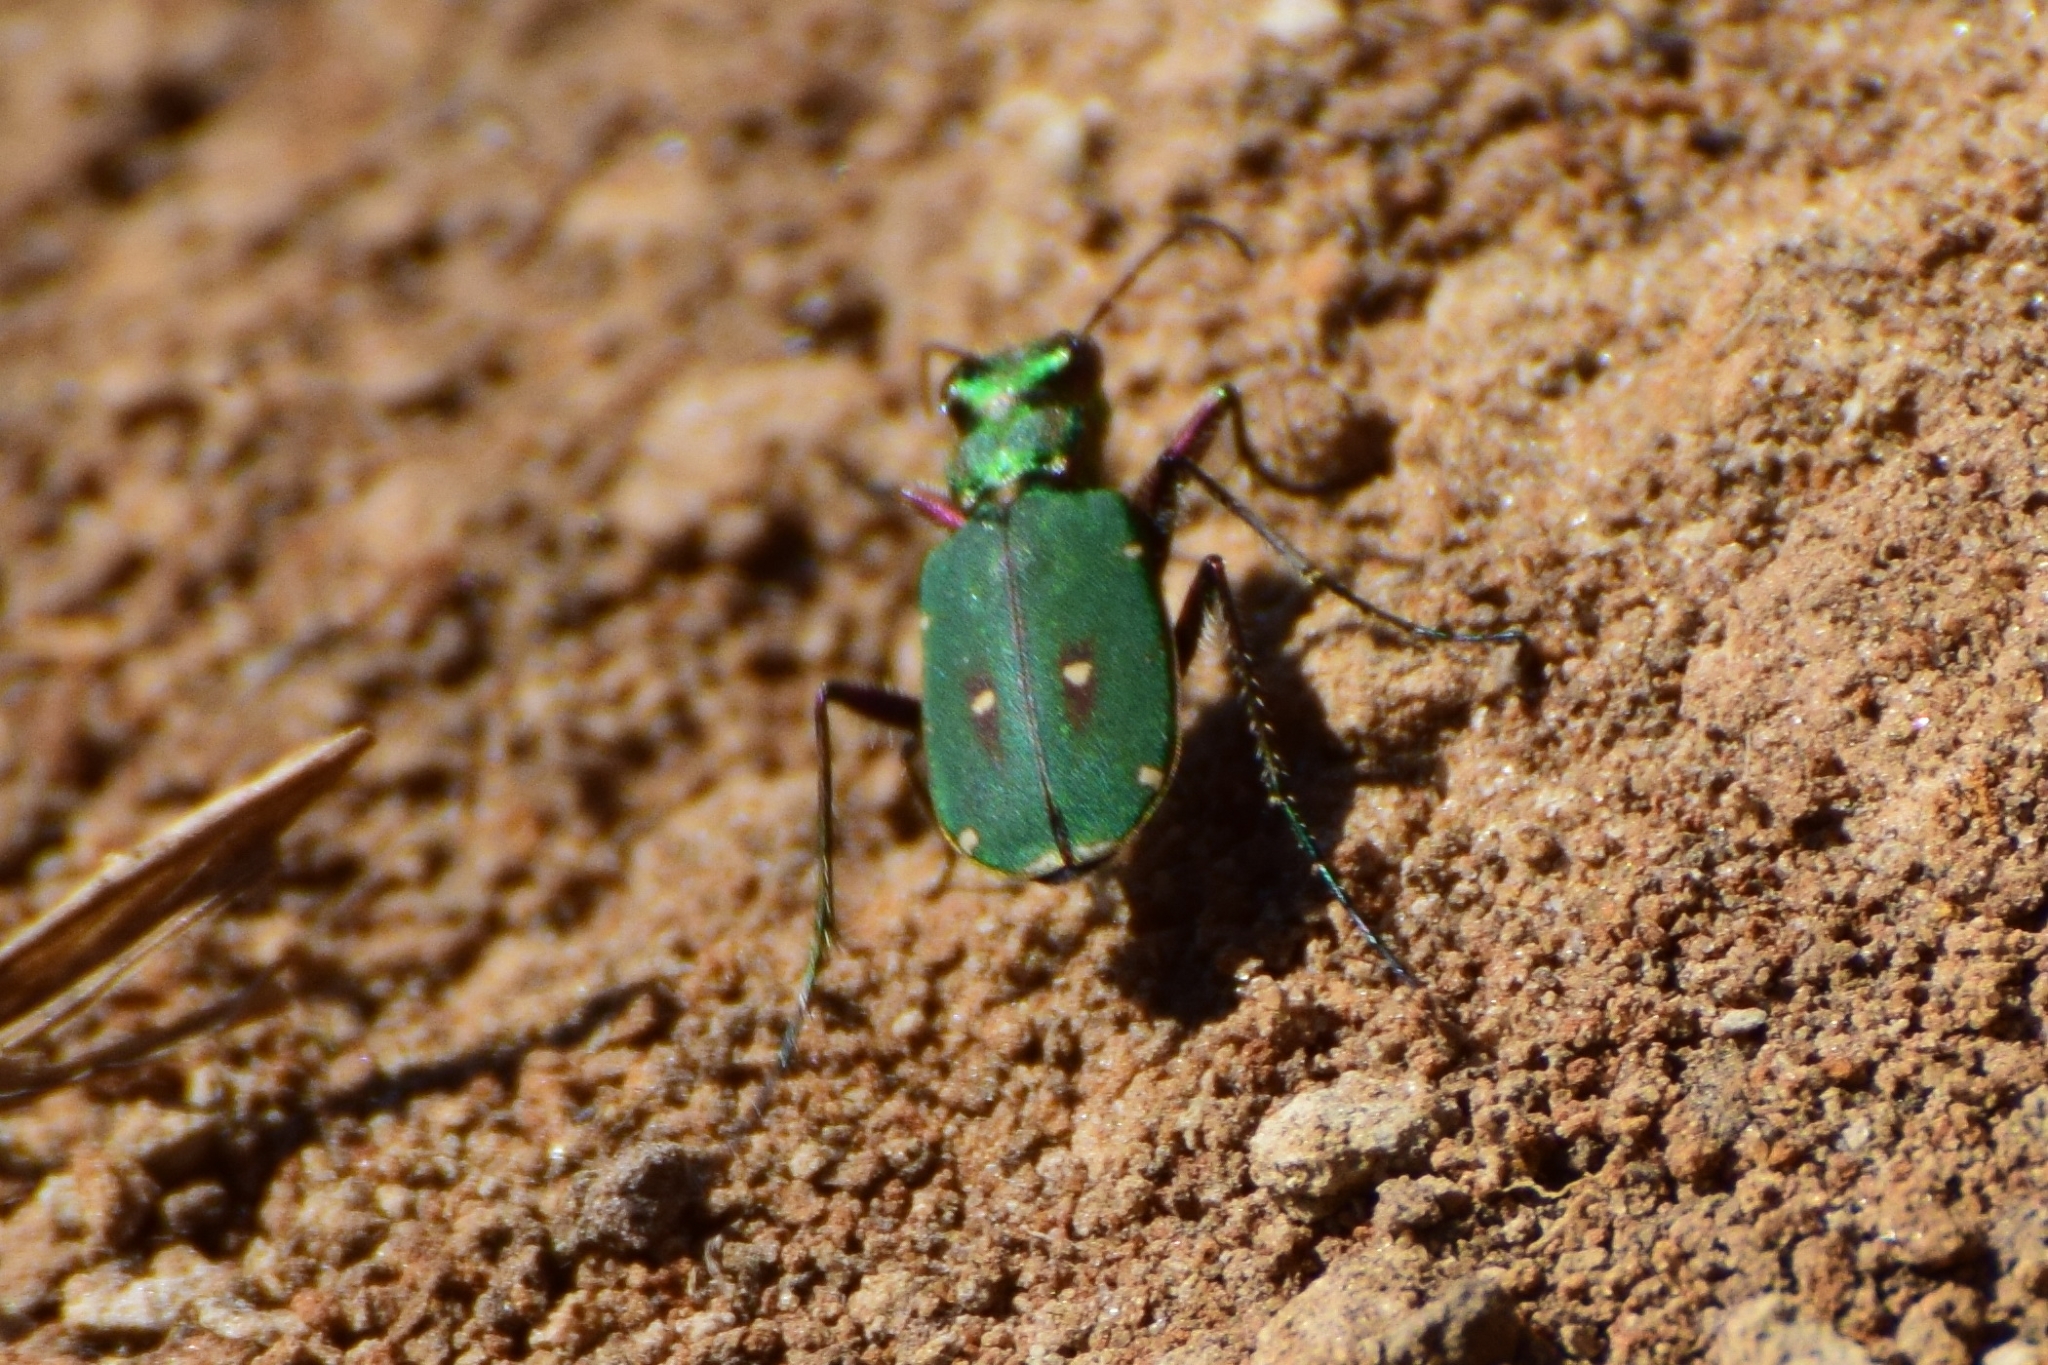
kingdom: Animalia
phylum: Arthropoda
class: Insecta
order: Coleoptera
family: Carabidae
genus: Cicindela
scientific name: Cicindela campestris
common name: Common tiger beetle
